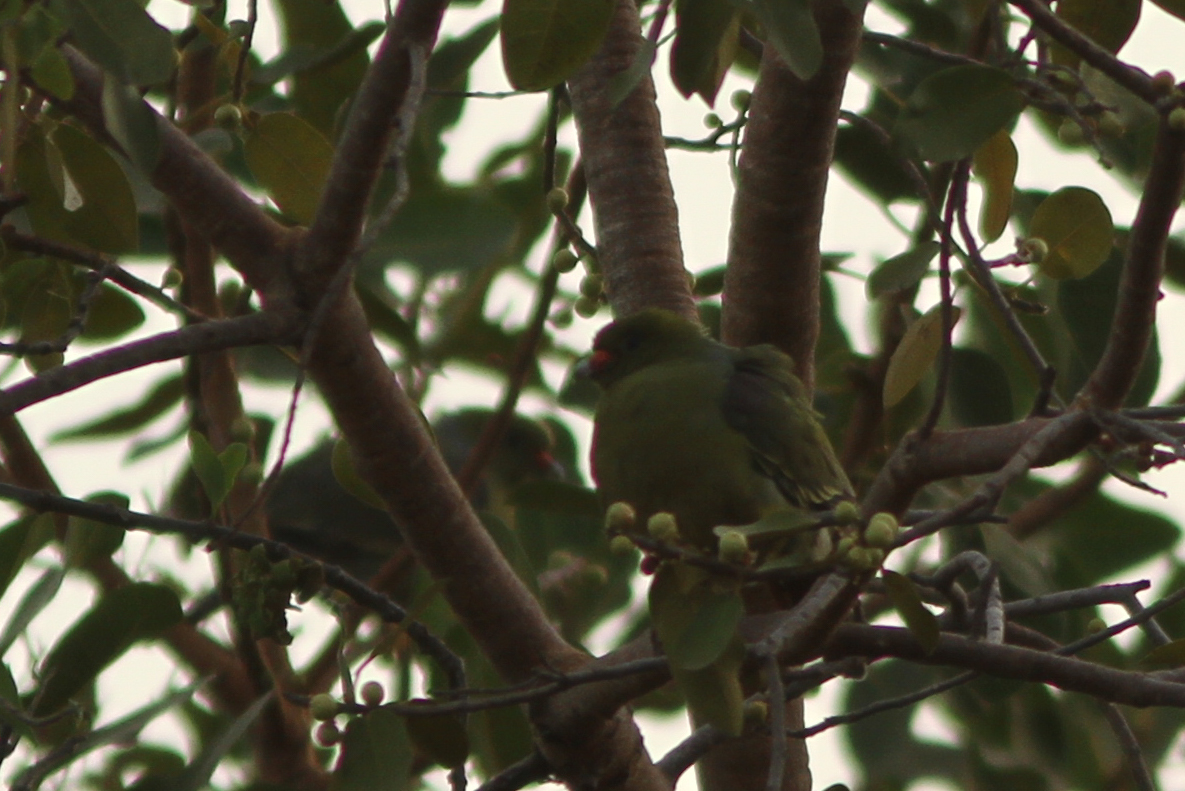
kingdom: Animalia
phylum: Chordata
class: Aves
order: Columbiformes
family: Columbidae
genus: Treron
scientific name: Treron calvus
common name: African green pigeon
